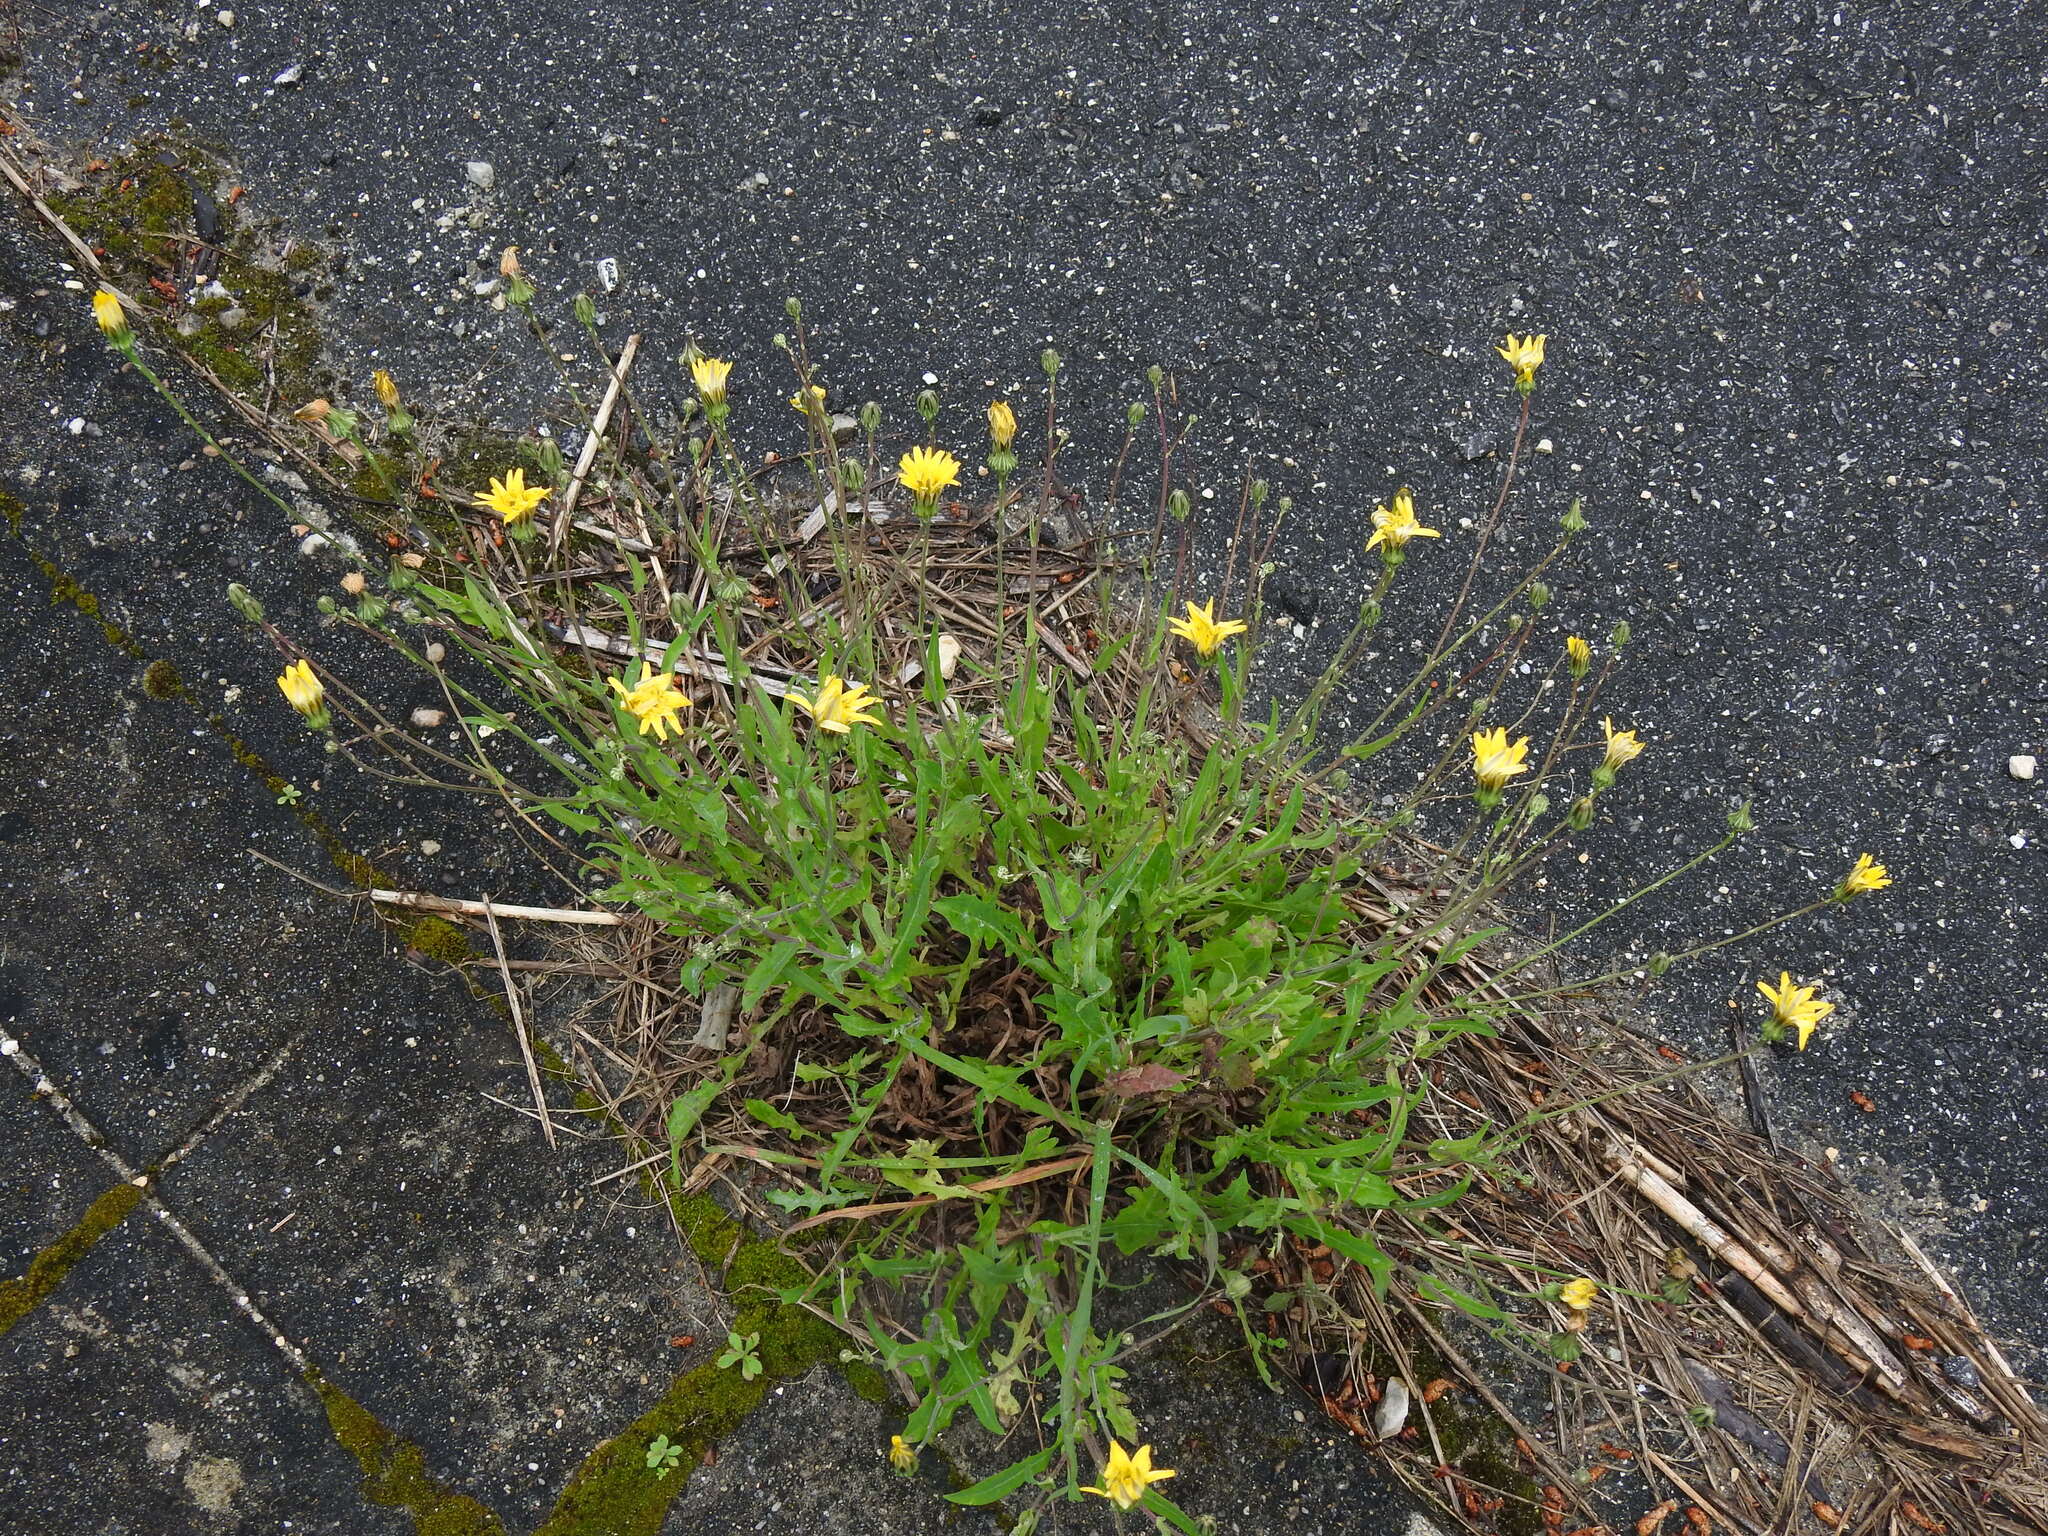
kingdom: Plantae
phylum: Tracheophyta
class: Magnoliopsida
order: Asterales
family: Asteraceae
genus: Reichardia
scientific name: Reichardia picroides
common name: Common brighteyes
